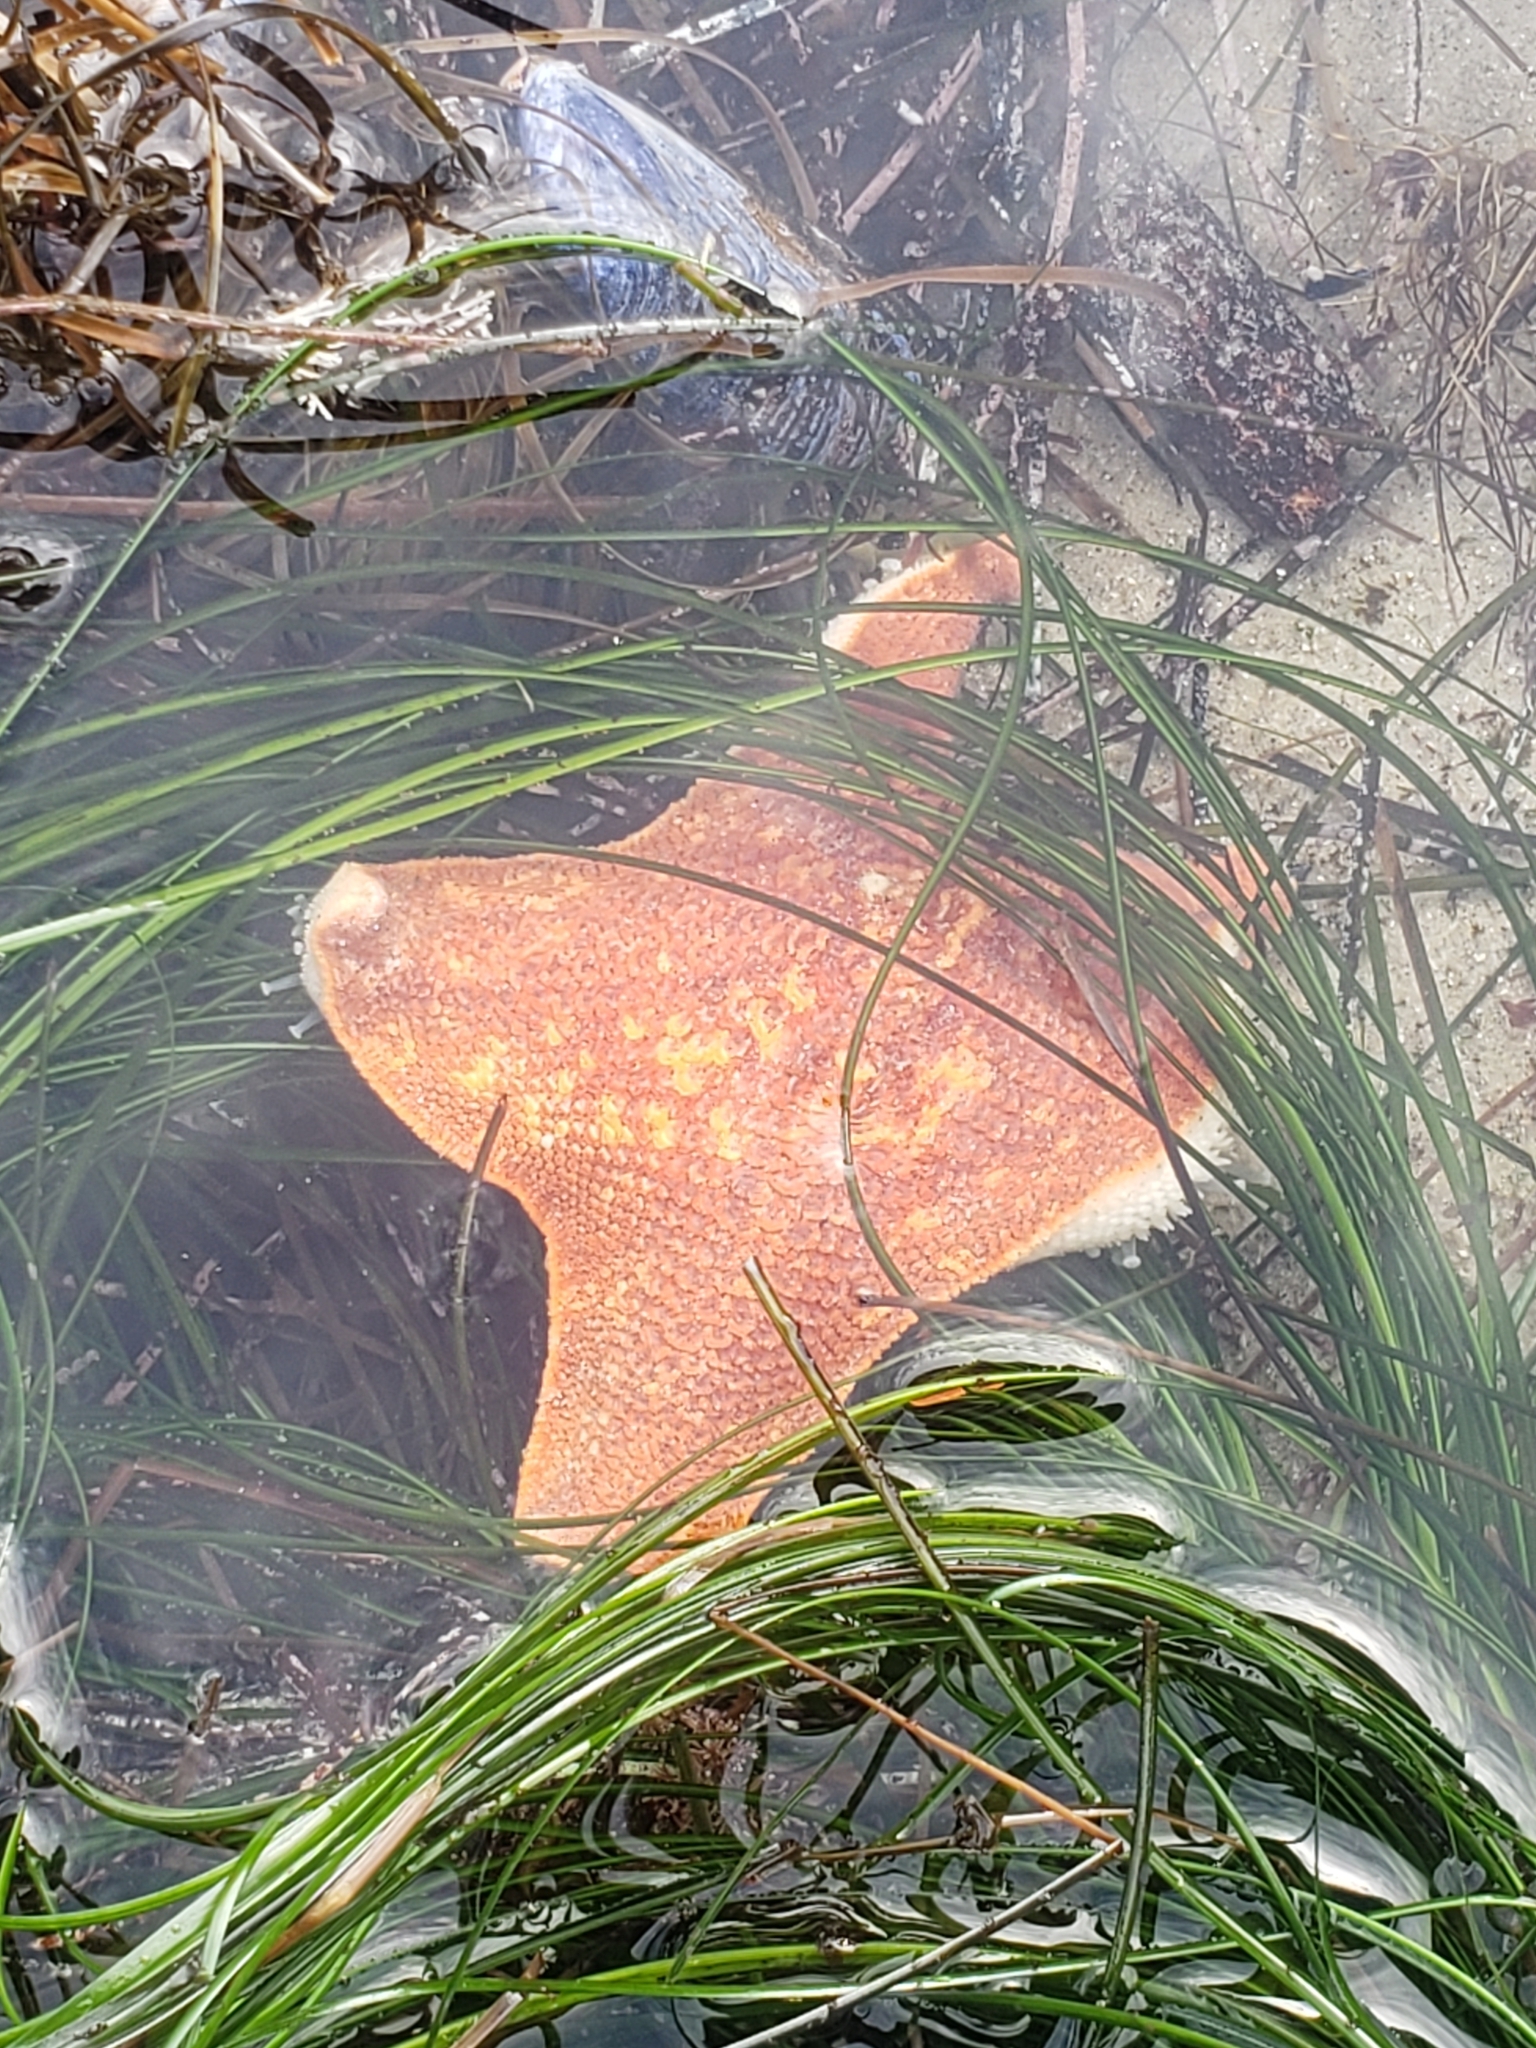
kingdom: Animalia
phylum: Echinodermata
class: Asteroidea
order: Valvatida
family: Asterinidae
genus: Patiria
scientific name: Patiria miniata
